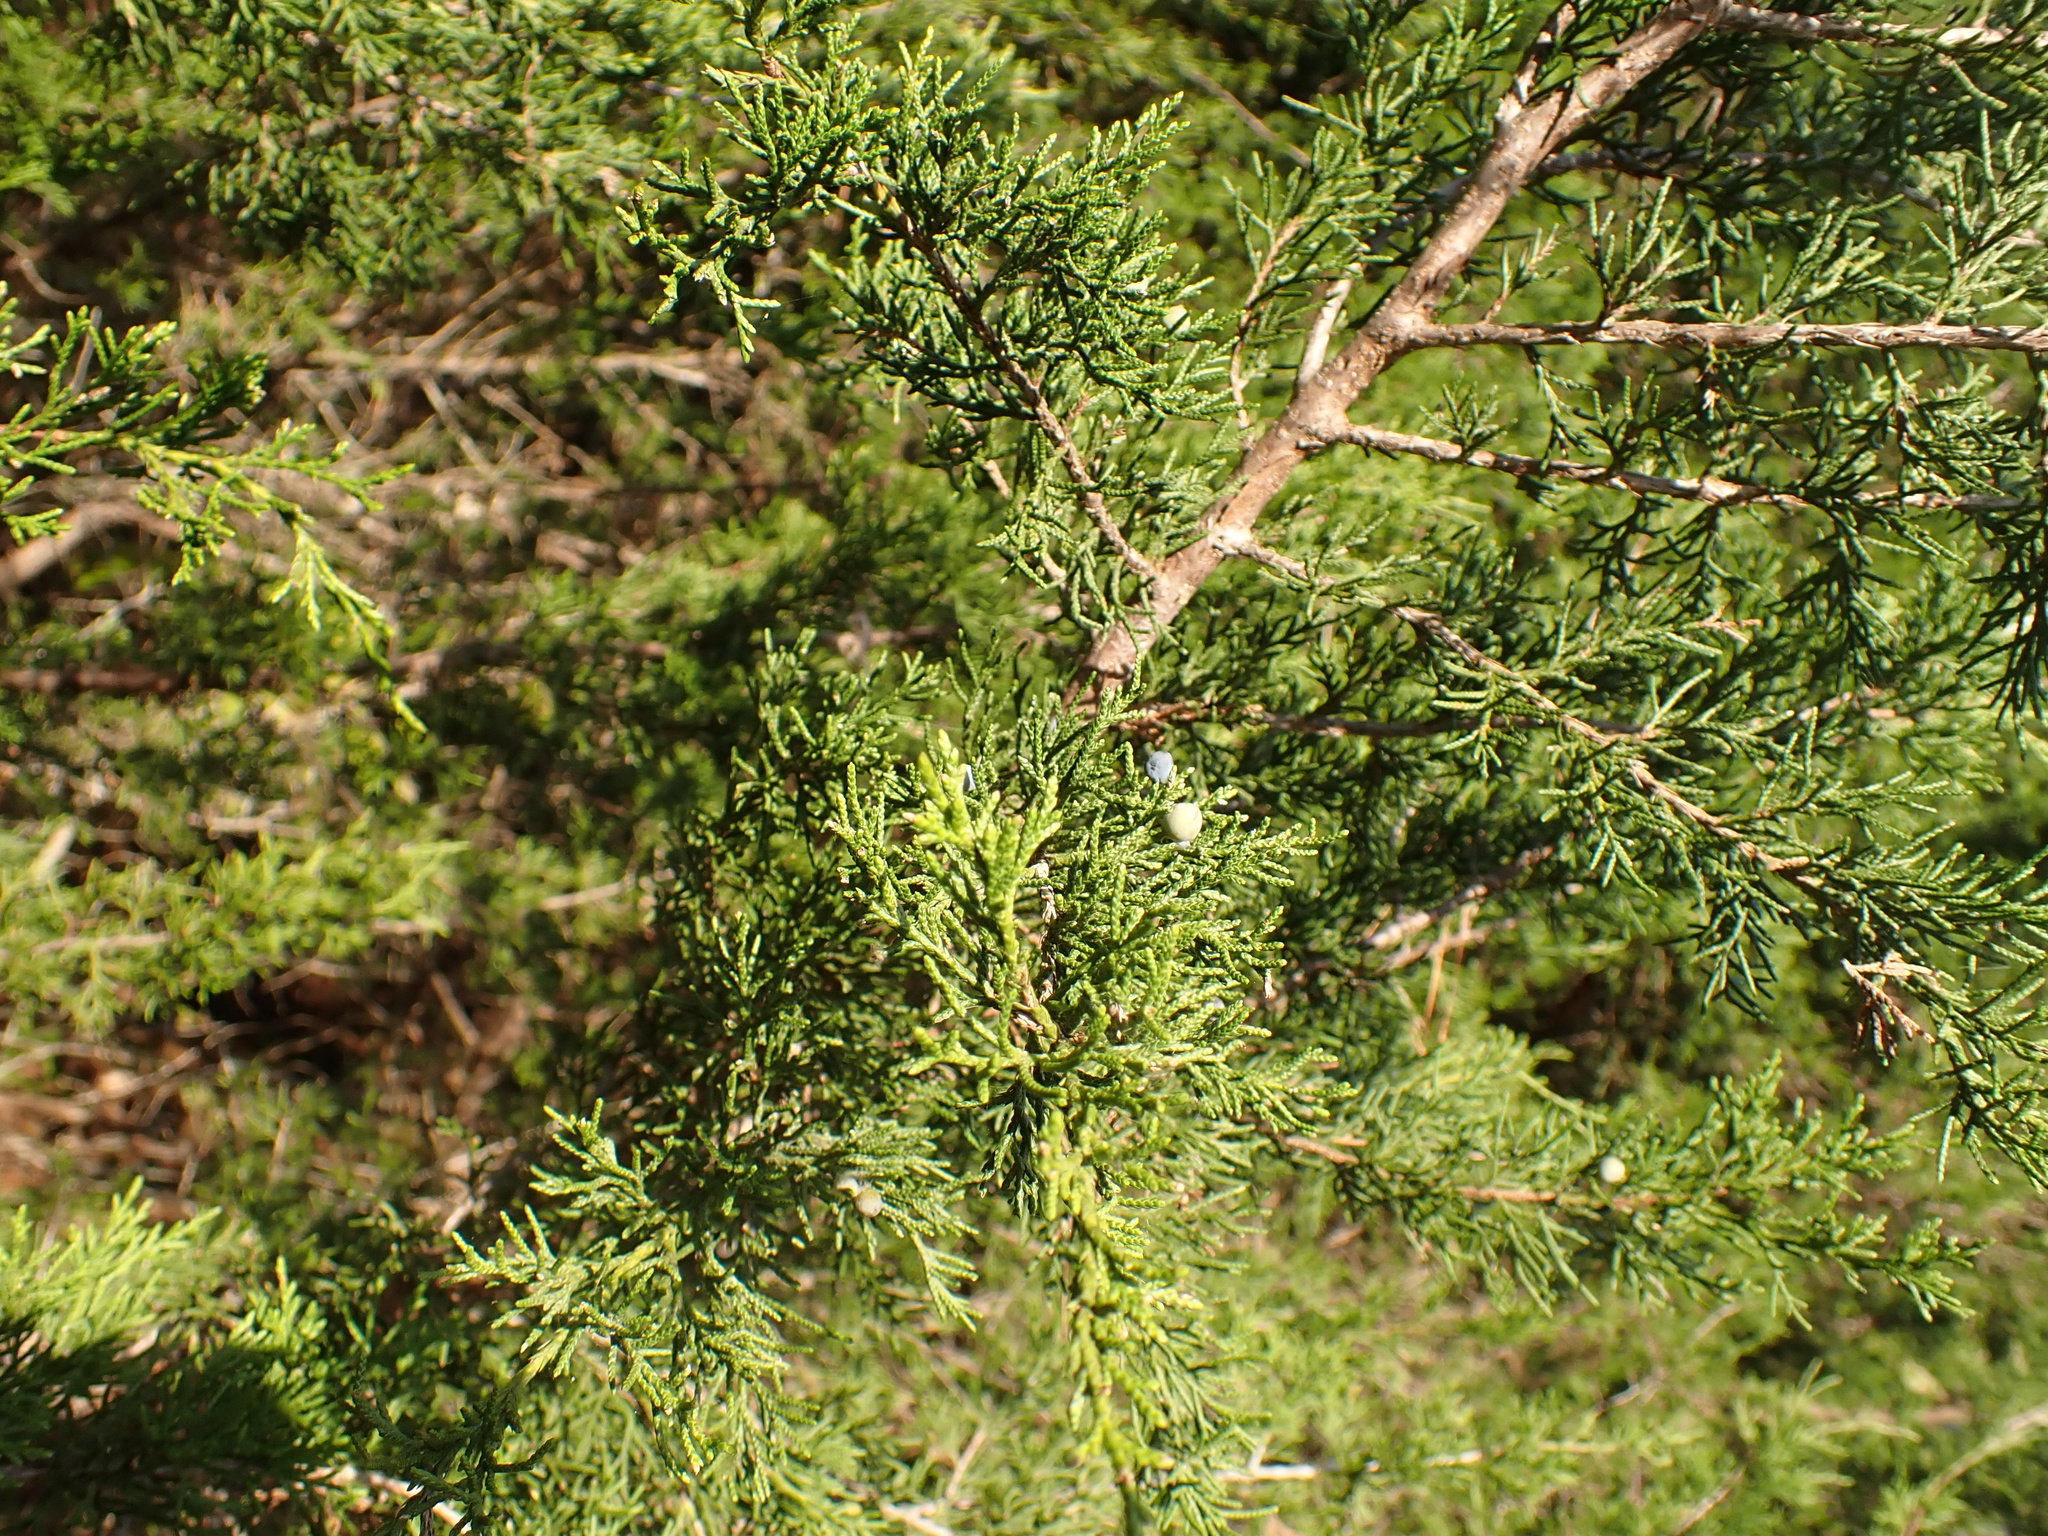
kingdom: Plantae
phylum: Tracheophyta
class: Pinopsida
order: Pinales
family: Cupressaceae
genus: Juniperus
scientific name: Juniperus virginiana
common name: Red juniper
